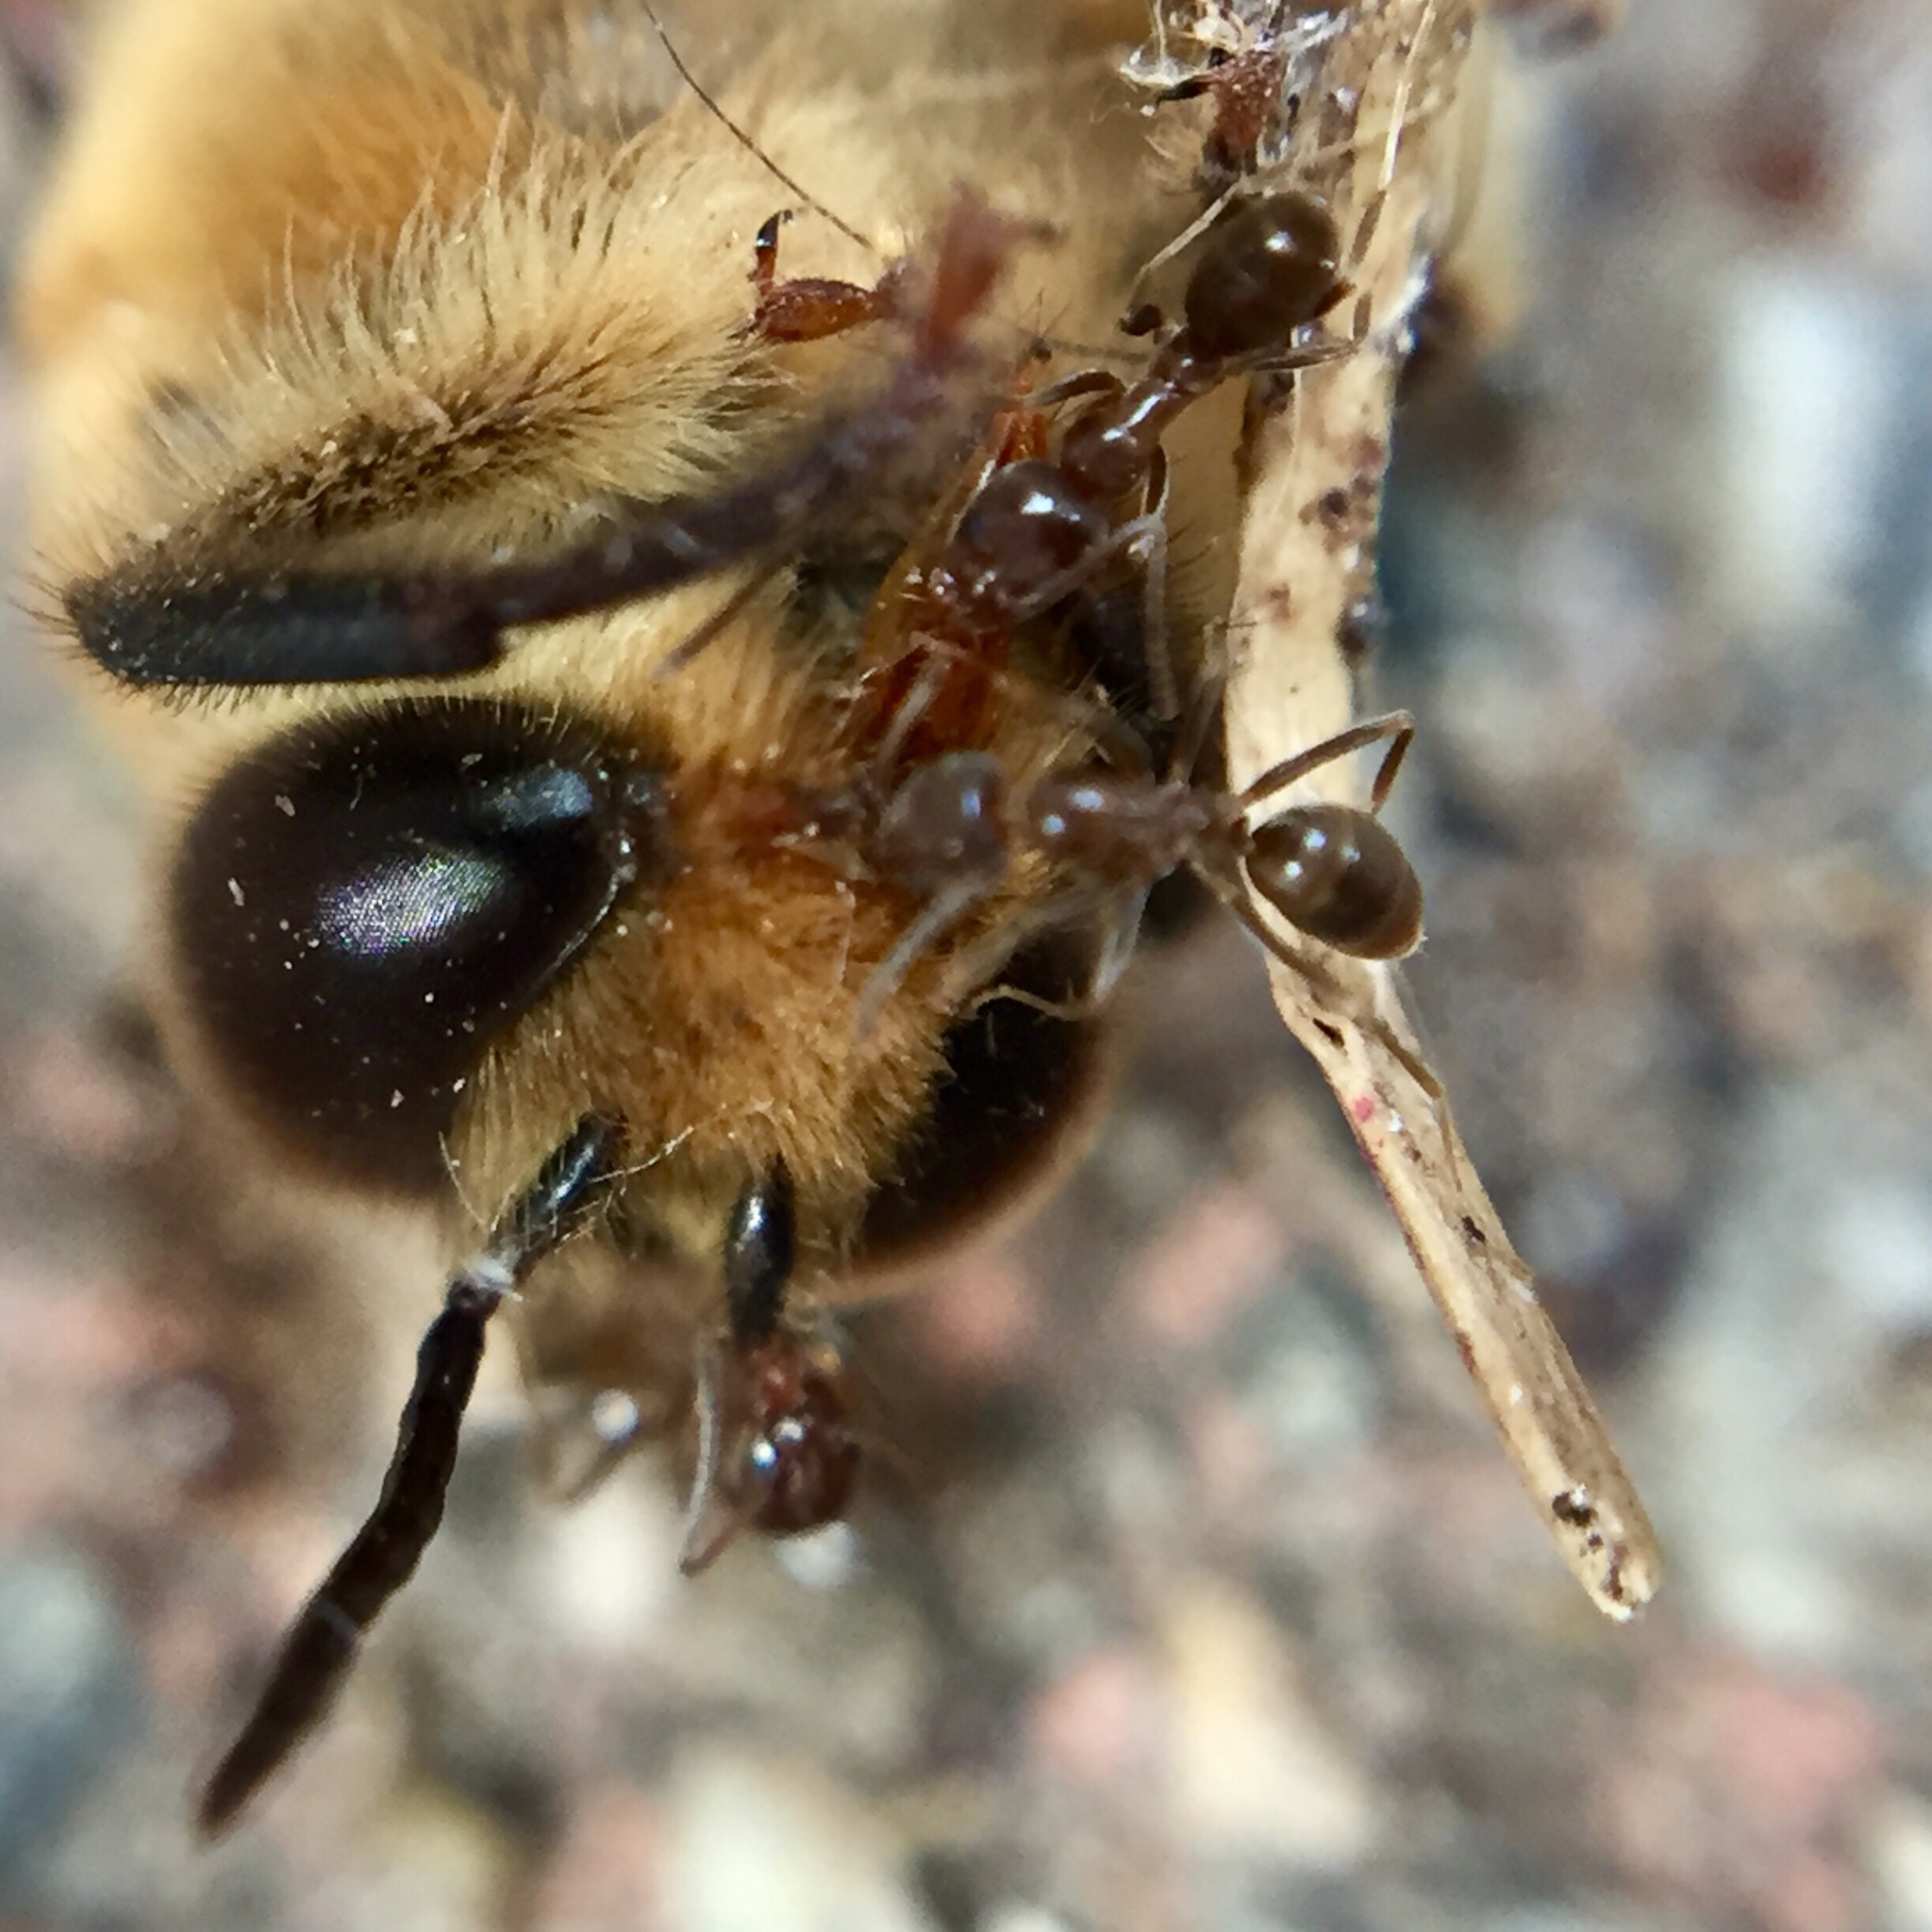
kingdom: Animalia
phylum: Arthropoda
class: Insecta
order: Hymenoptera
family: Formicidae
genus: Linepithema
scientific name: Linepithema humile
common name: Argentine ant
